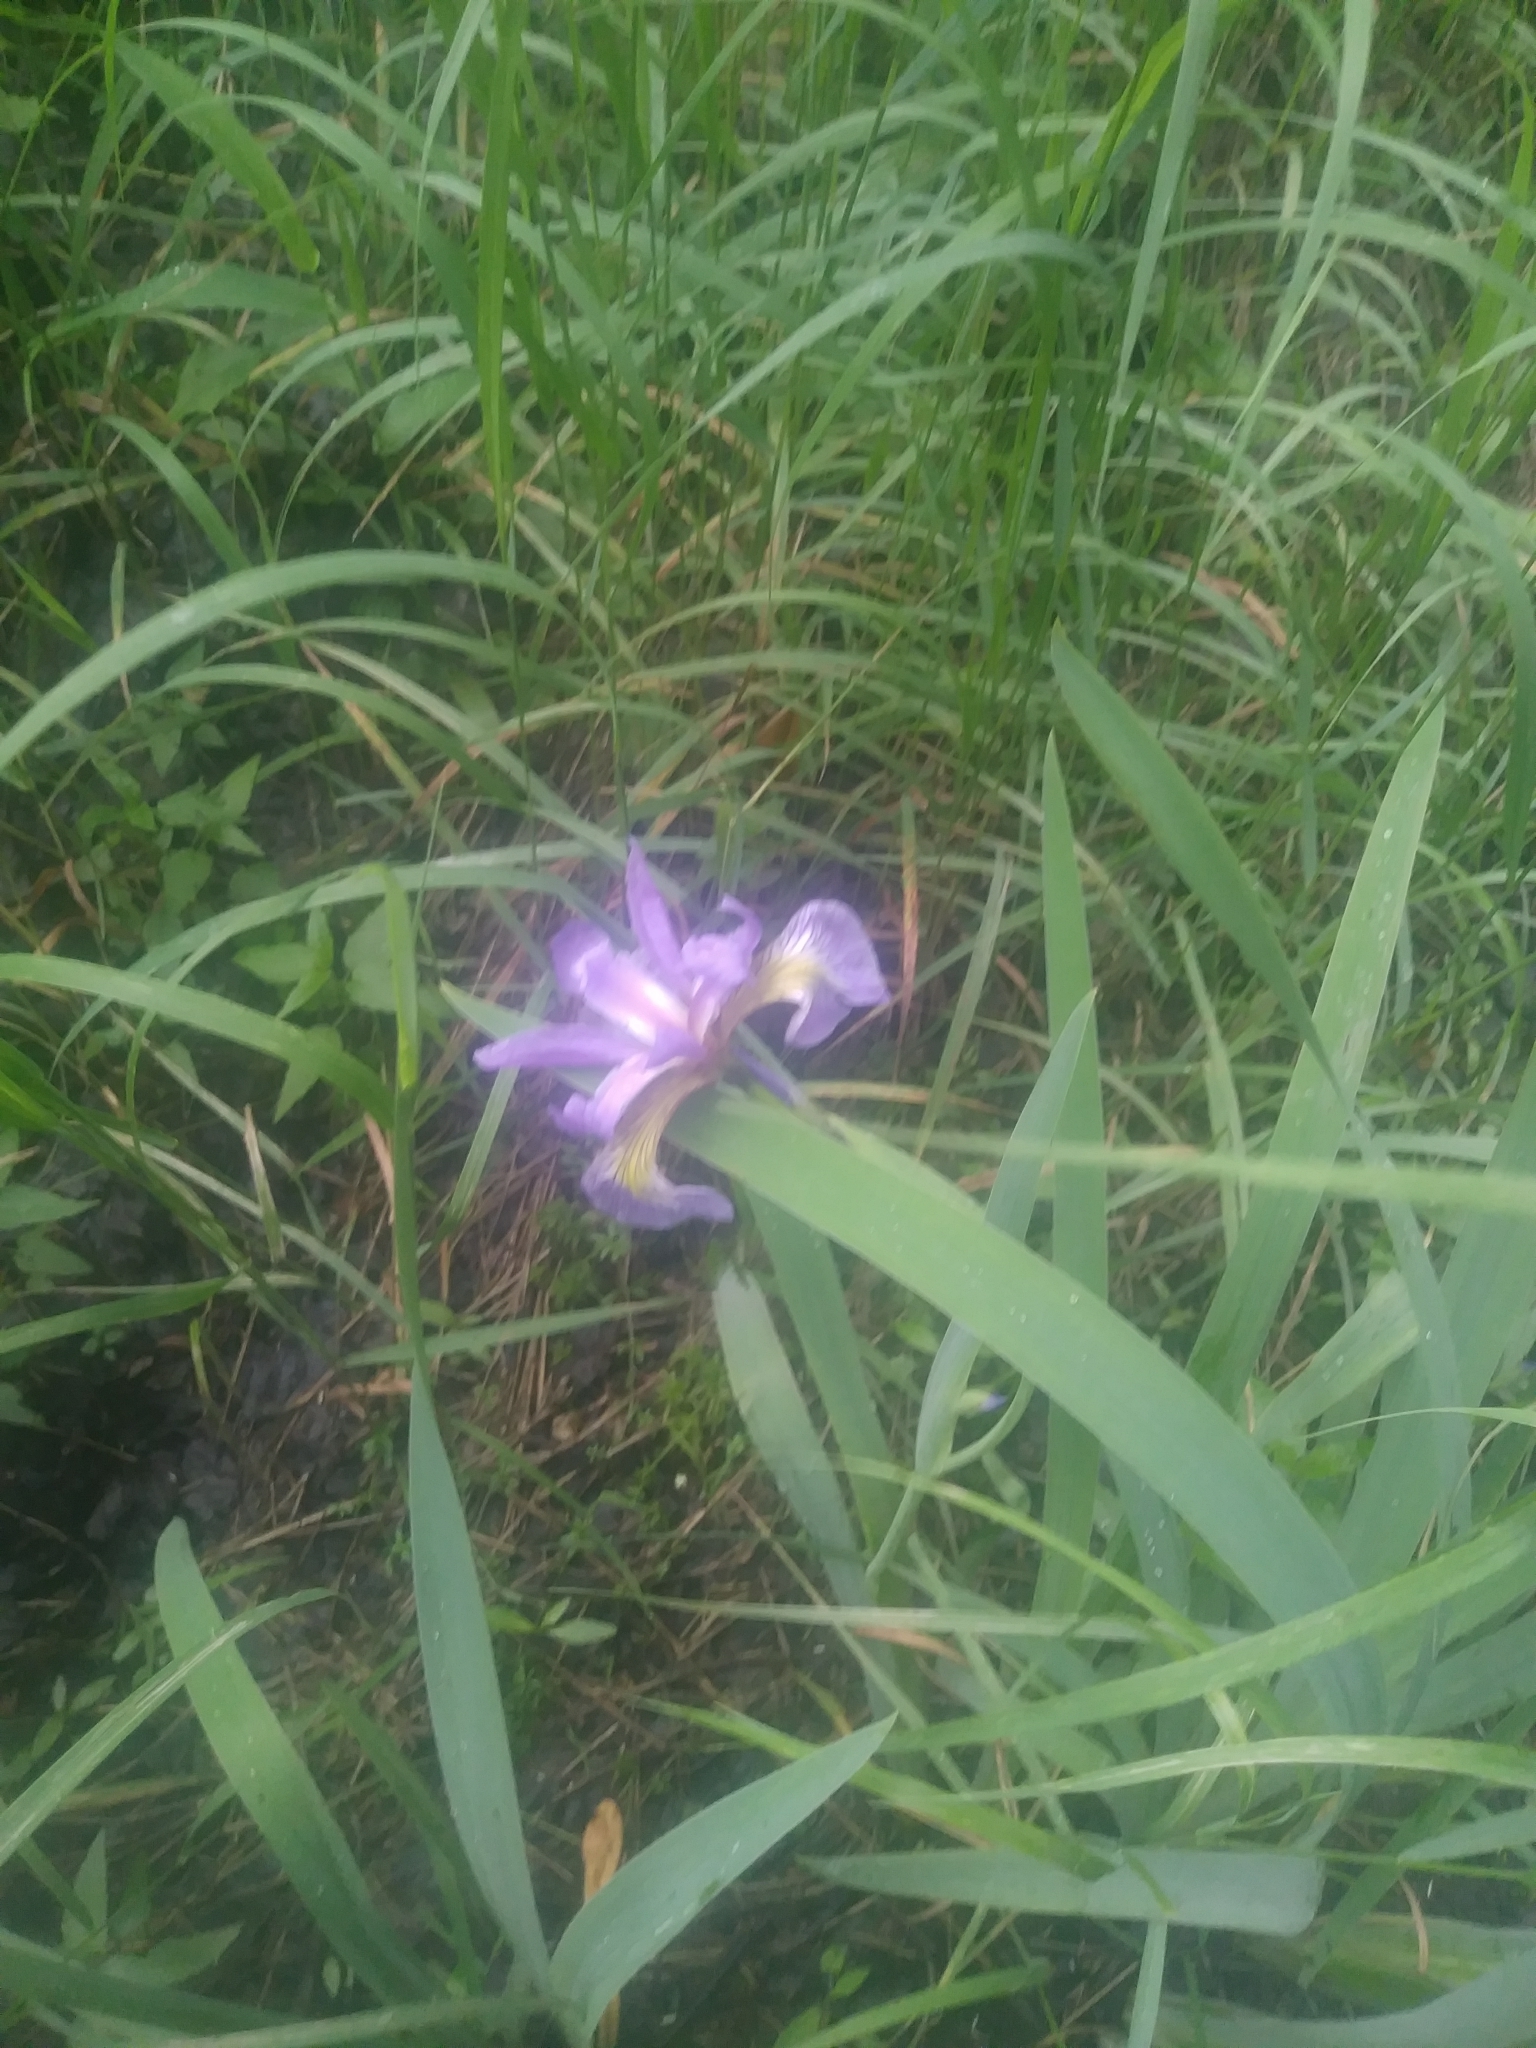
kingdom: Plantae
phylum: Tracheophyta
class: Liliopsida
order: Asparagales
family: Iridaceae
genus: Iris
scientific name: Iris versicolor
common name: Purple iris
